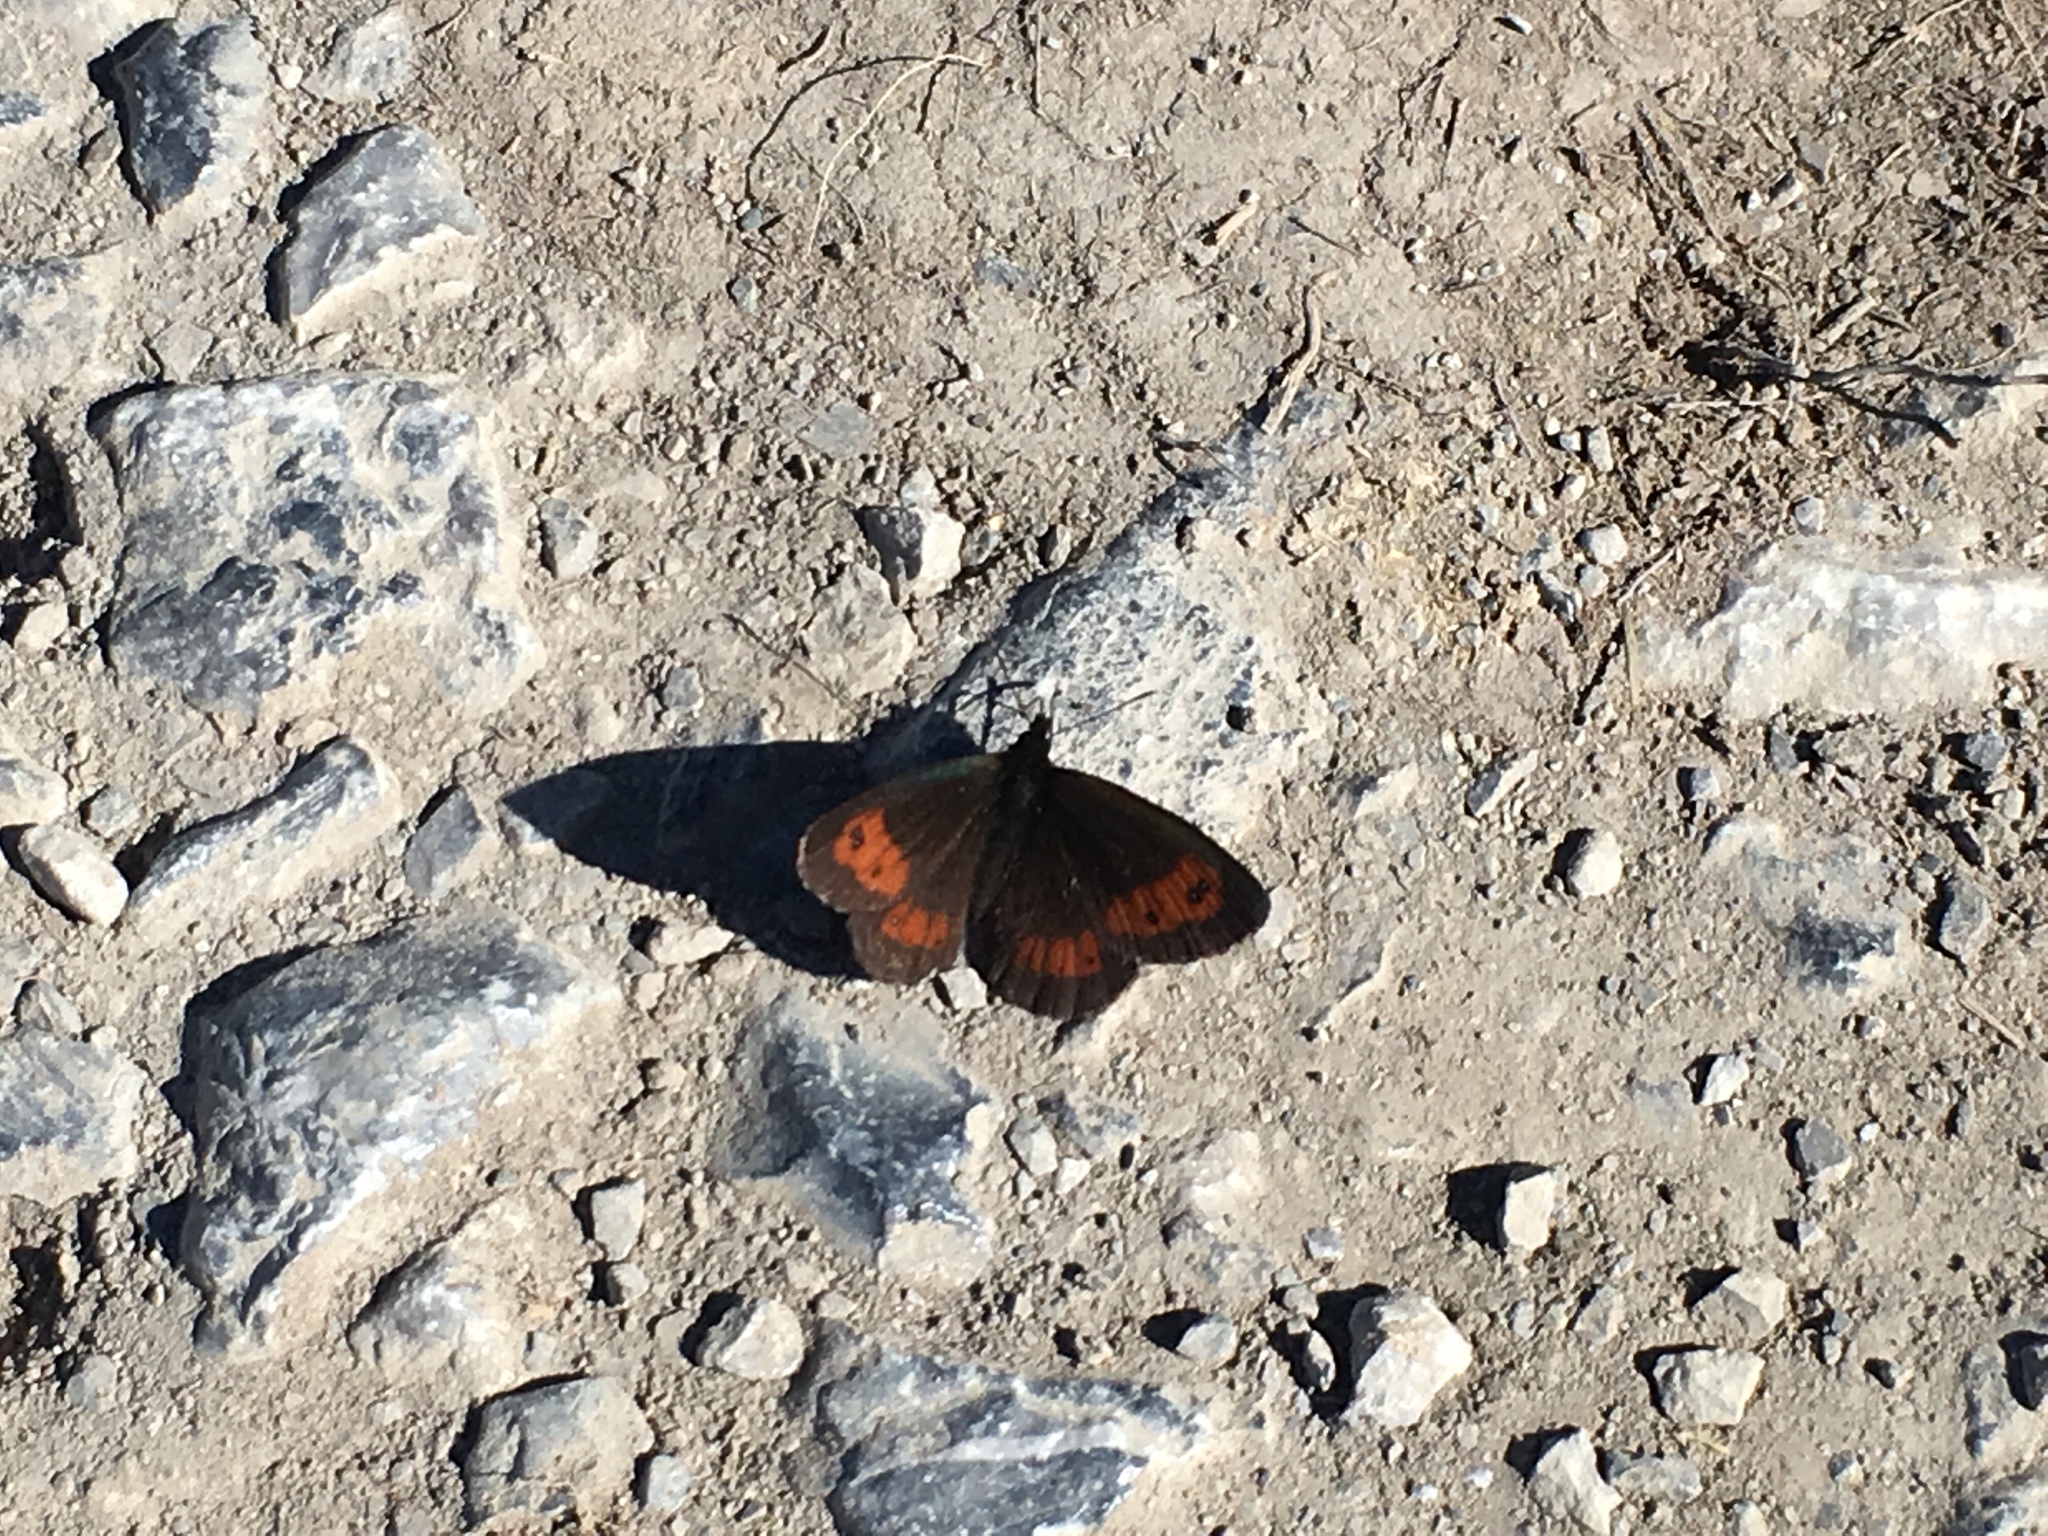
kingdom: Animalia
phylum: Arthropoda
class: Insecta
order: Lepidoptera
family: Nymphalidae
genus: Erebia
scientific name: Erebia euryale
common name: Large ringlet
